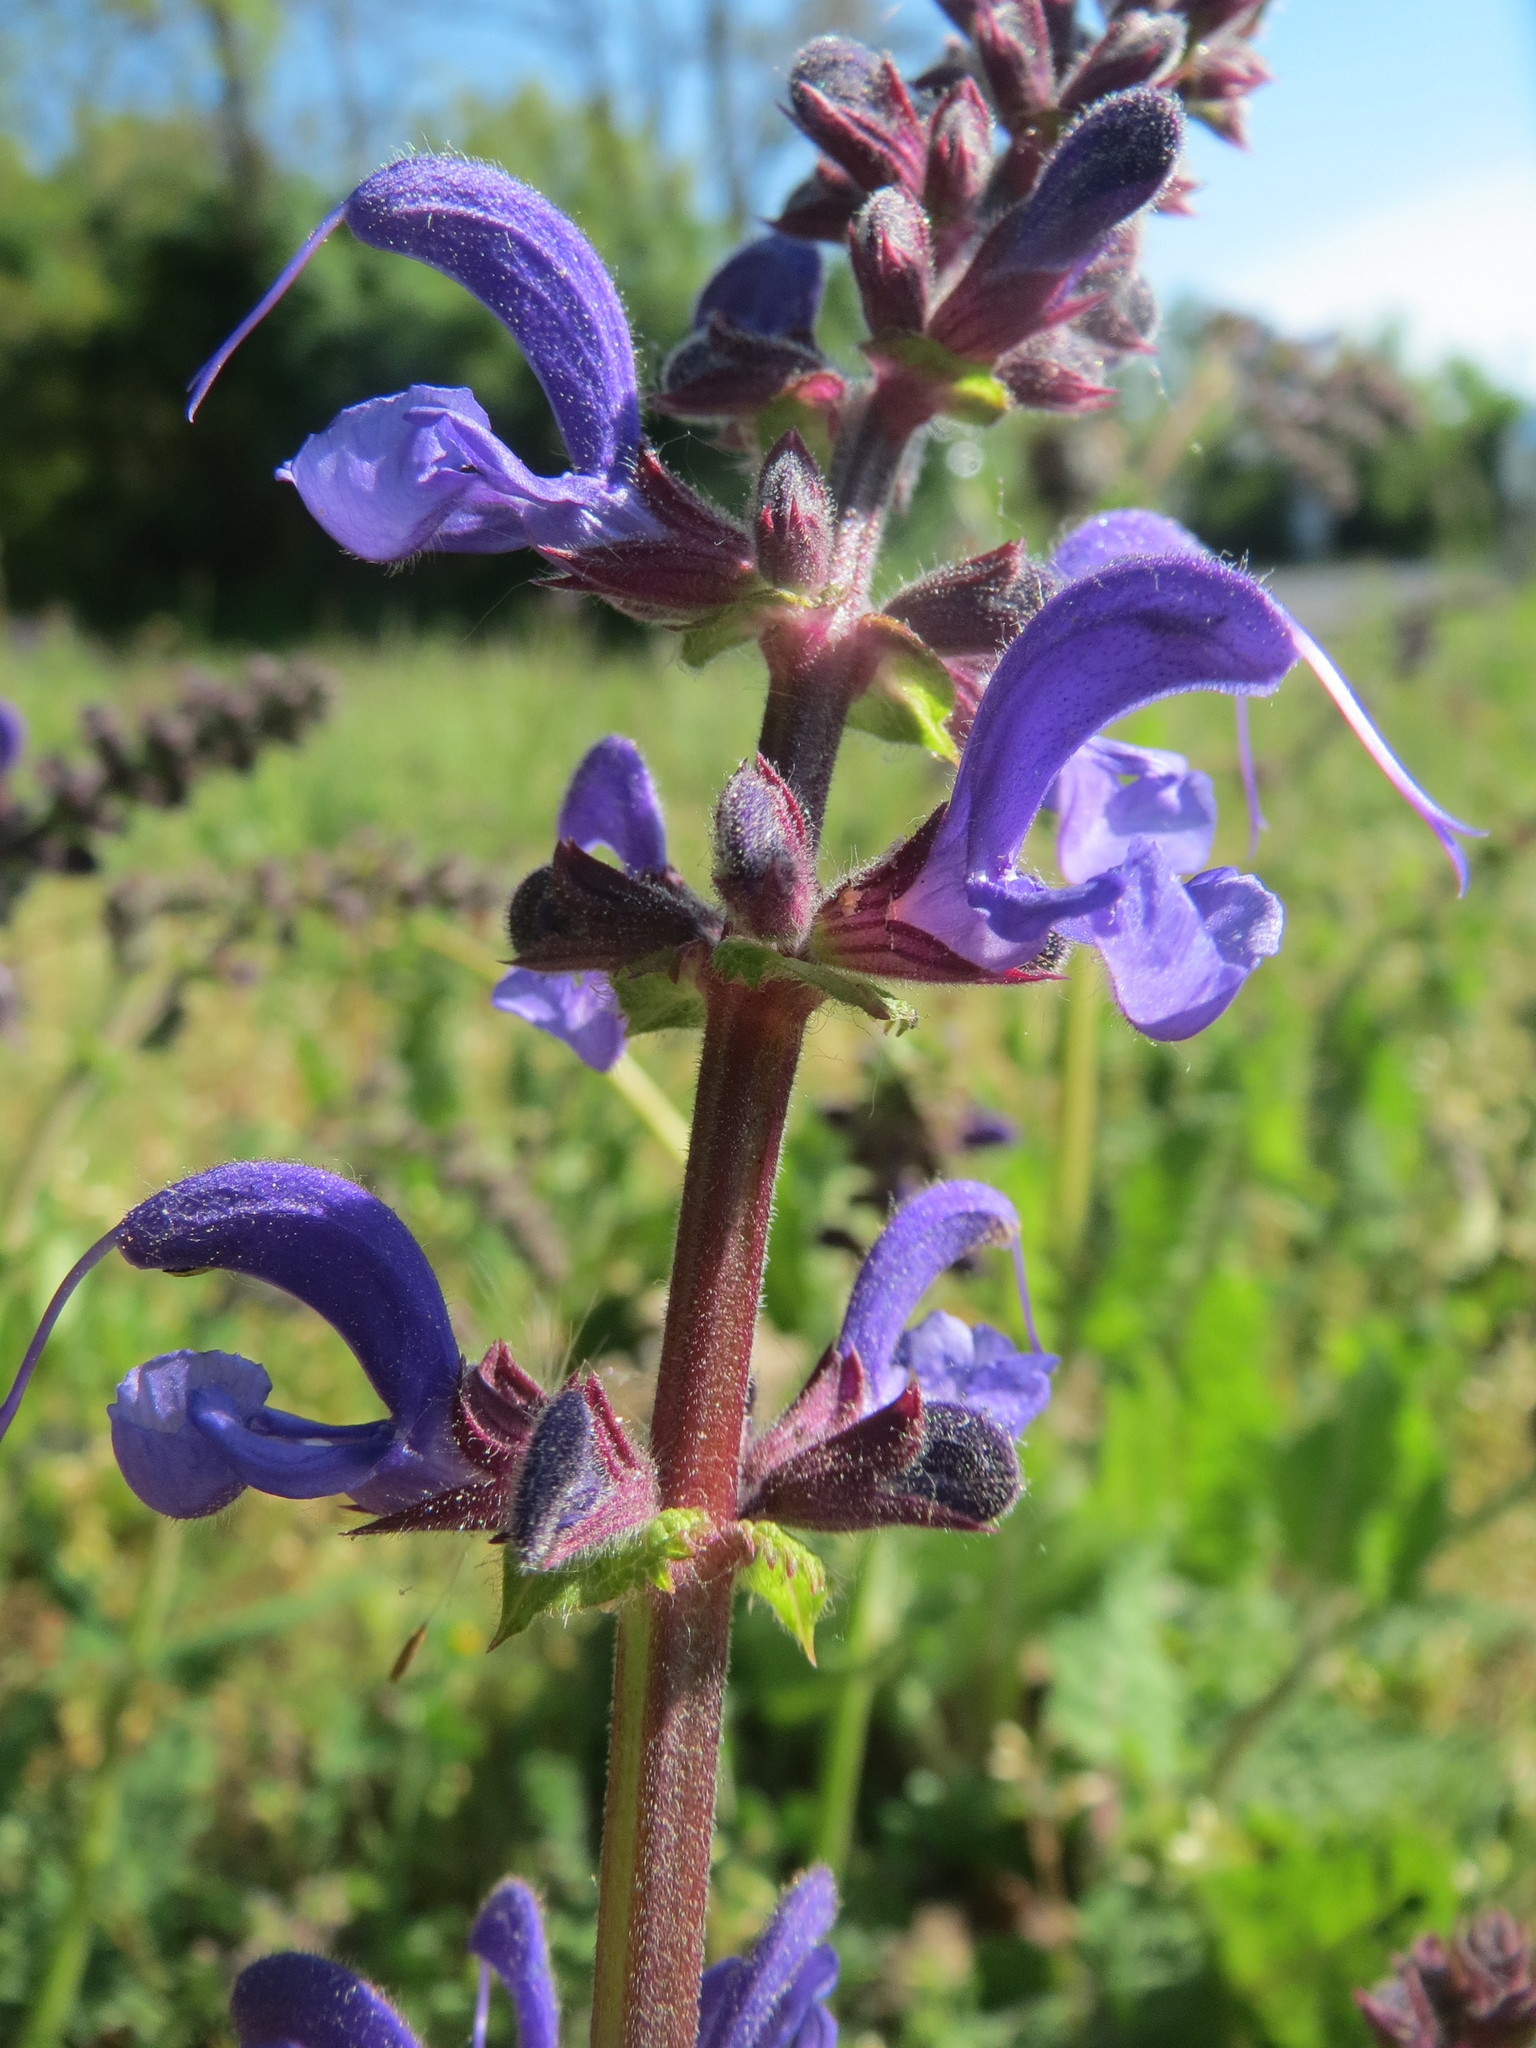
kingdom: Plantae
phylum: Tracheophyta
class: Magnoliopsida
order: Lamiales
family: Lamiaceae
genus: Salvia
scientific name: Salvia pratensis
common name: Meadow sage
